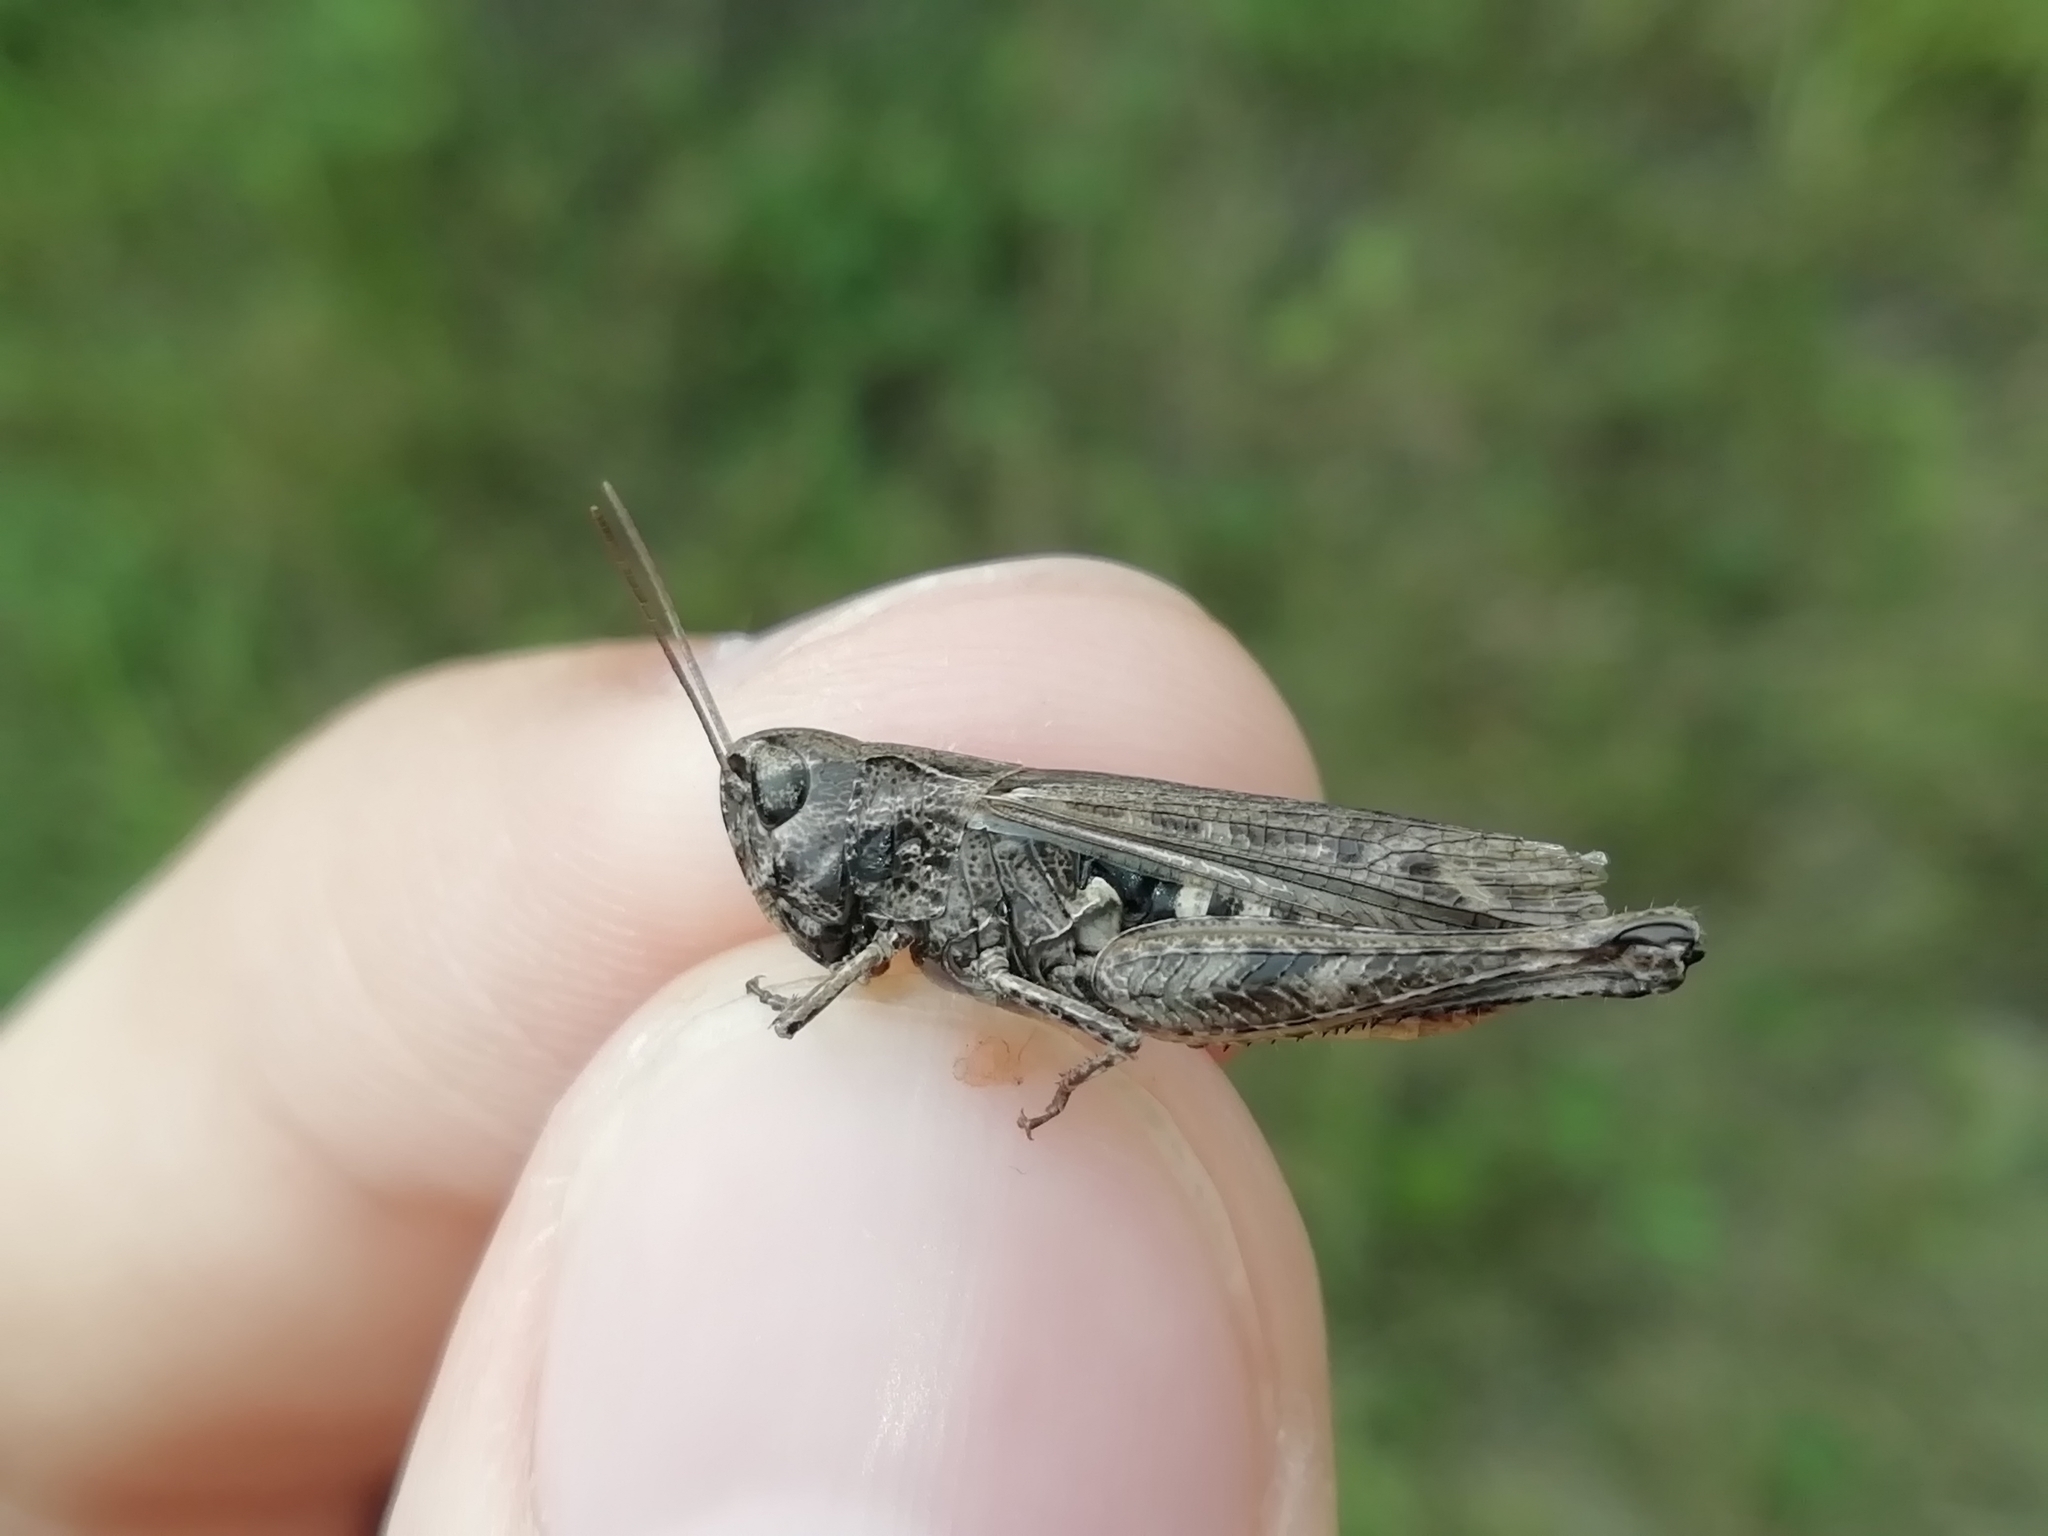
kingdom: Animalia
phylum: Arthropoda
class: Insecta
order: Orthoptera
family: Acrididae
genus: Omocestus
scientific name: Omocestus haemorrhoidalis
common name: Orange-tipped grasshopper
